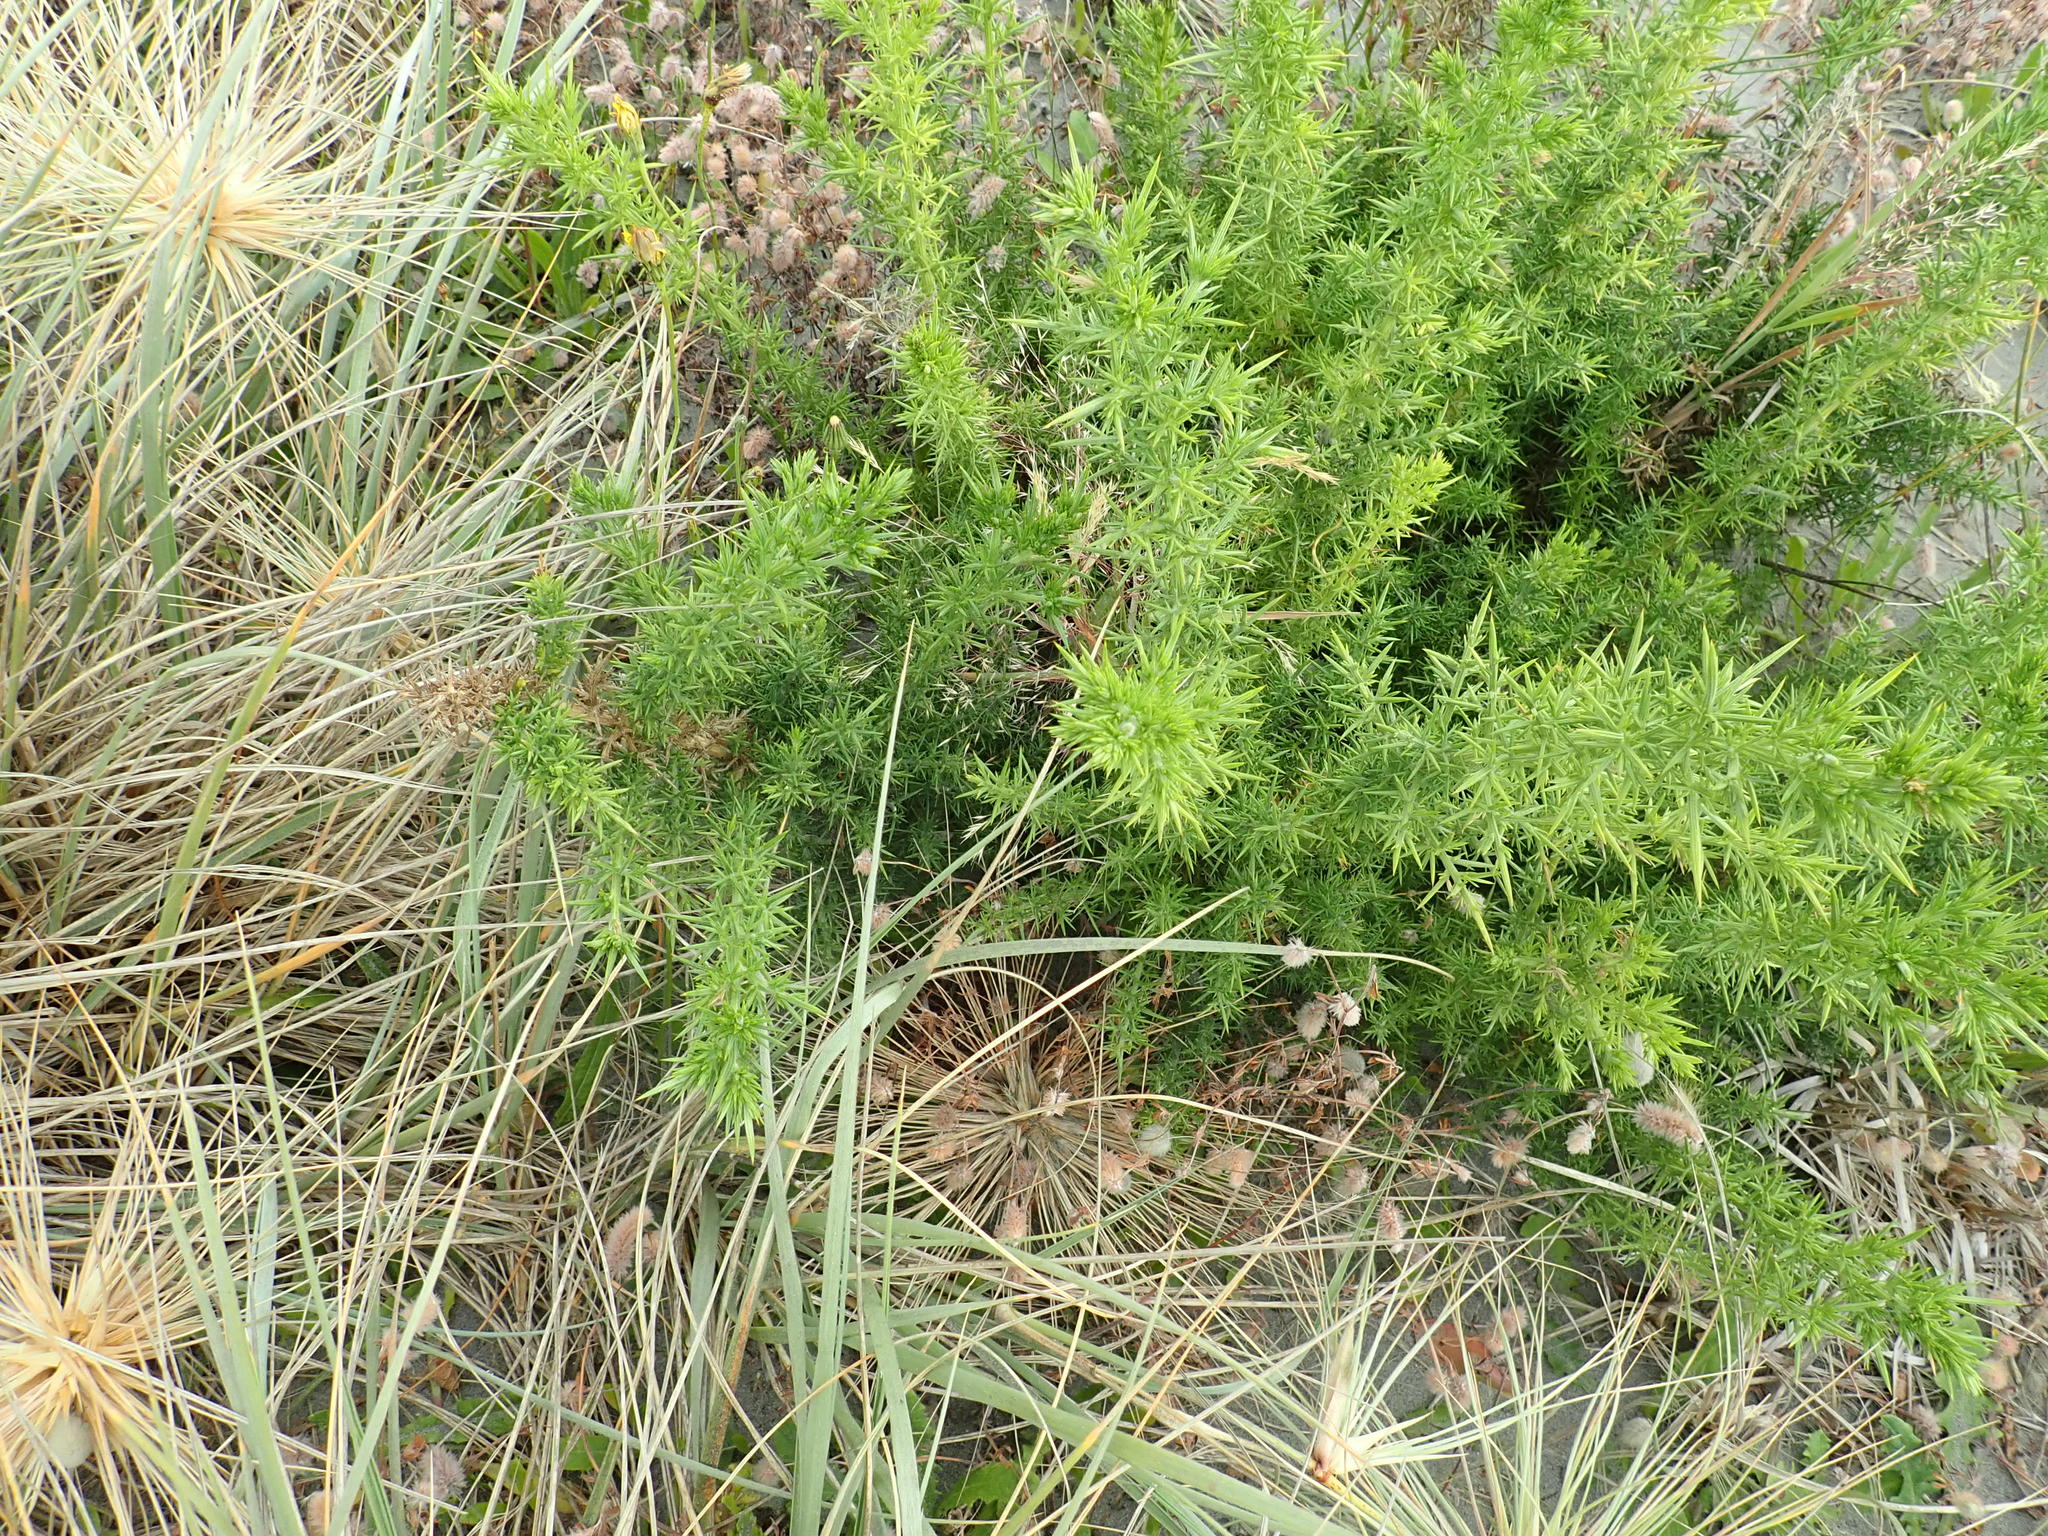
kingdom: Plantae
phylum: Tracheophyta
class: Magnoliopsida
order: Fabales
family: Fabaceae
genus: Ulex
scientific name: Ulex europaeus
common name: Common gorse
